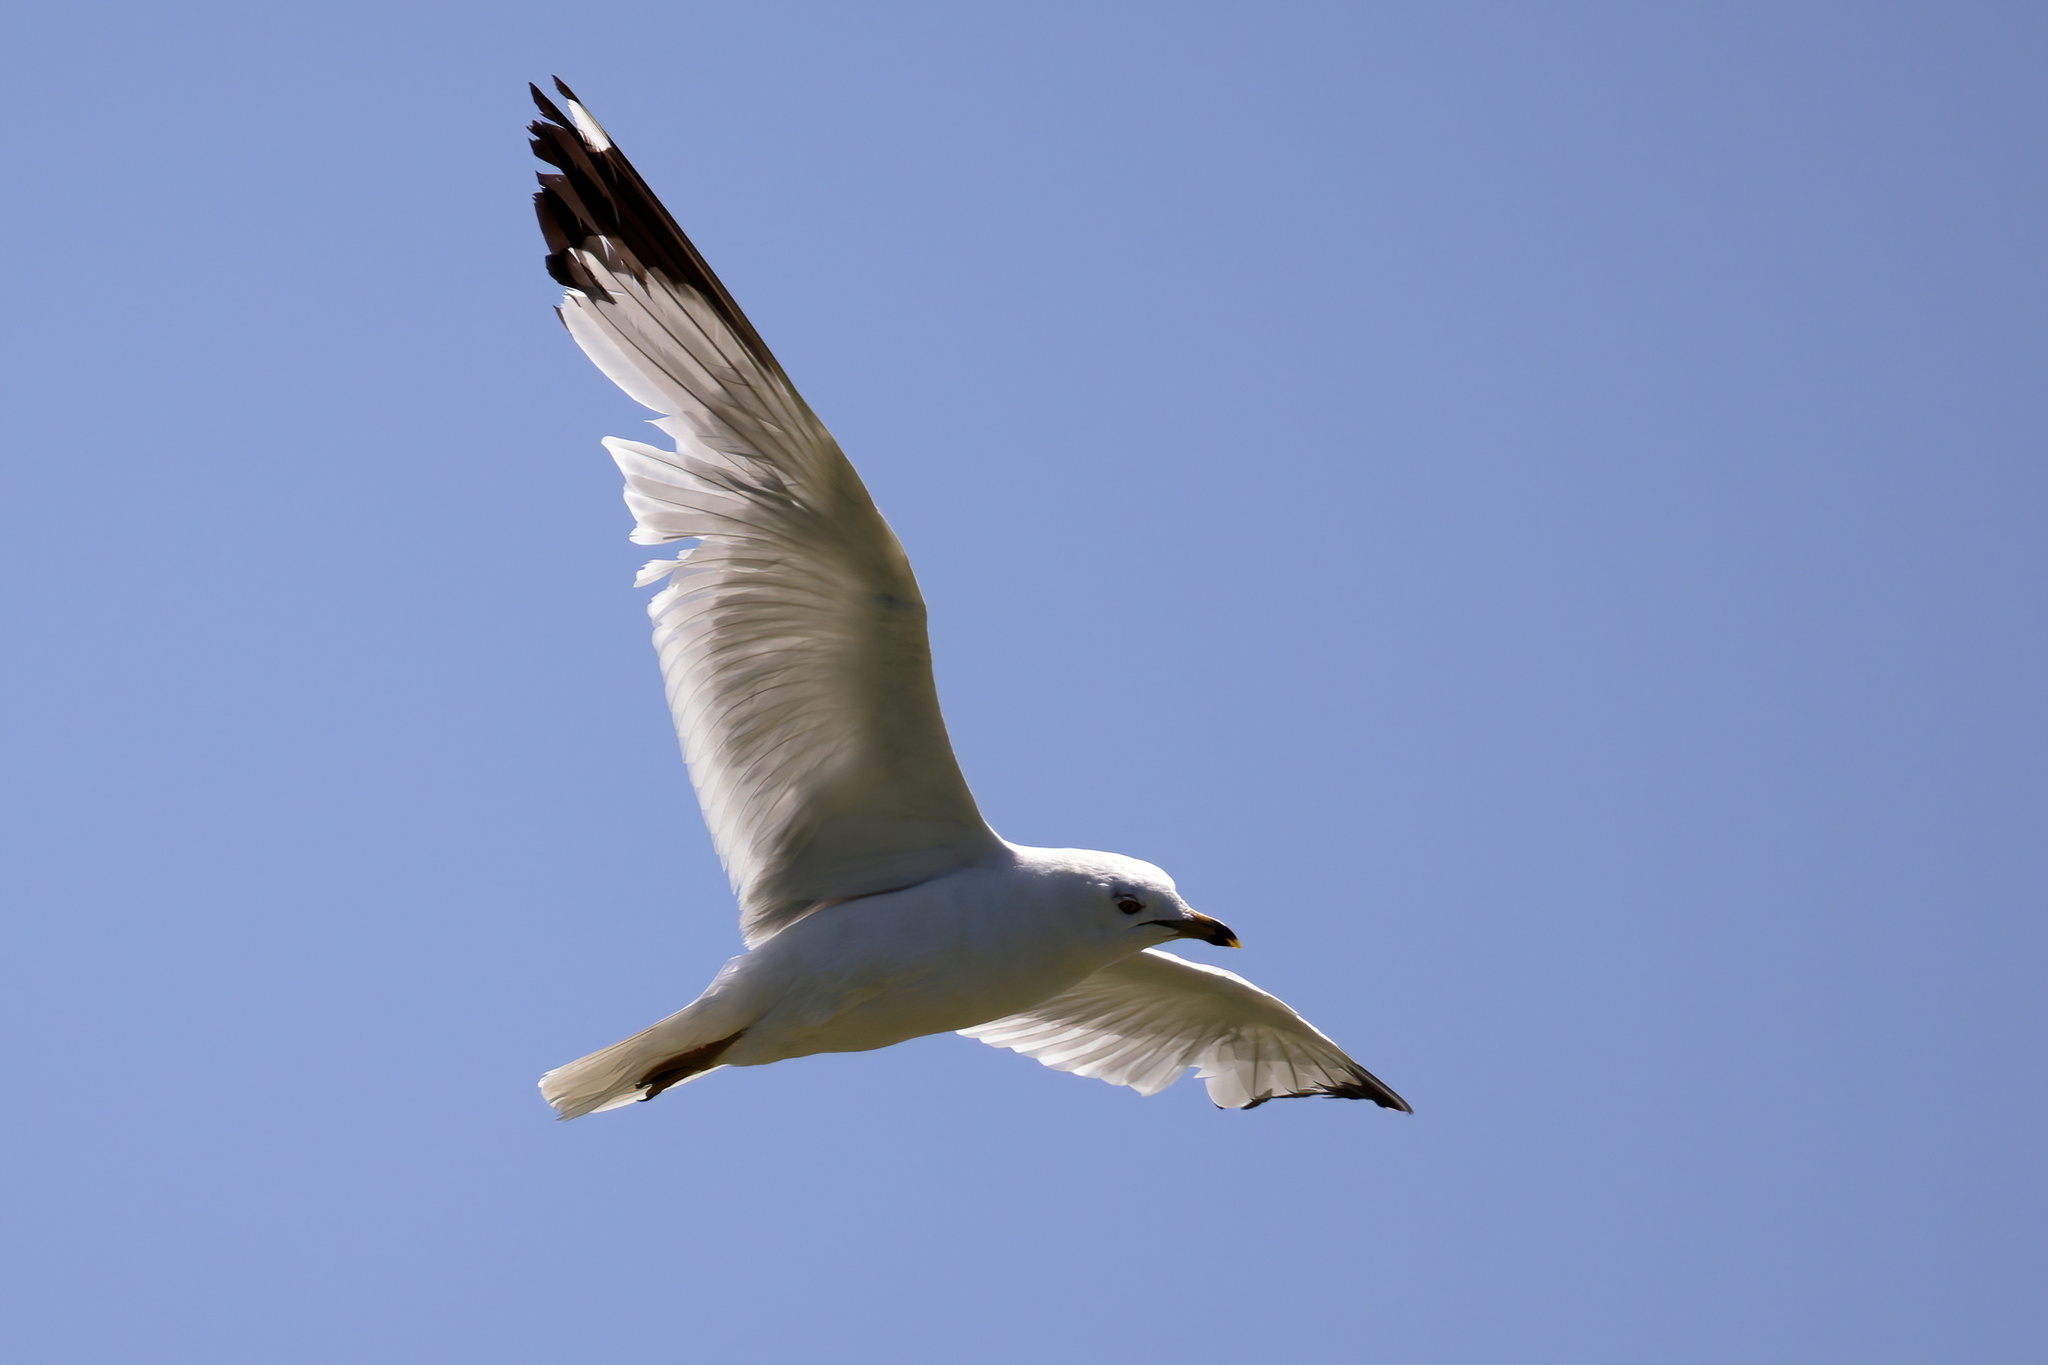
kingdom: Animalia
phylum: Chordata
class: Aves
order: Charadriiformes
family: Laridae
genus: Larus
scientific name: Larus delawarensis
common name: Ring-billed gull
